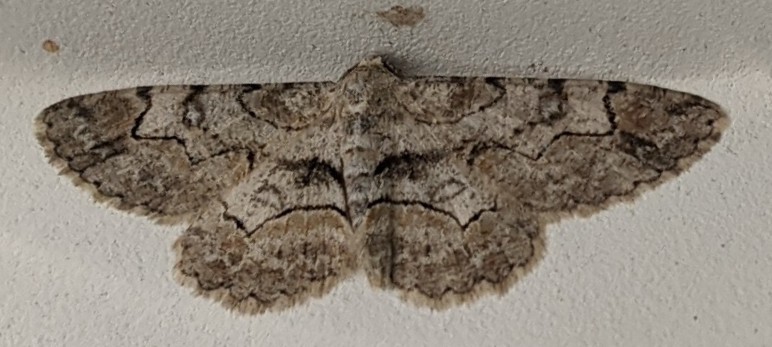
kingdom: Animalia
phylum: Arthropoda
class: Insecta
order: Lepidoptera
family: Geometridae
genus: Iridopsis
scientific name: Iridopsis larvaria
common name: Bent-line gray
